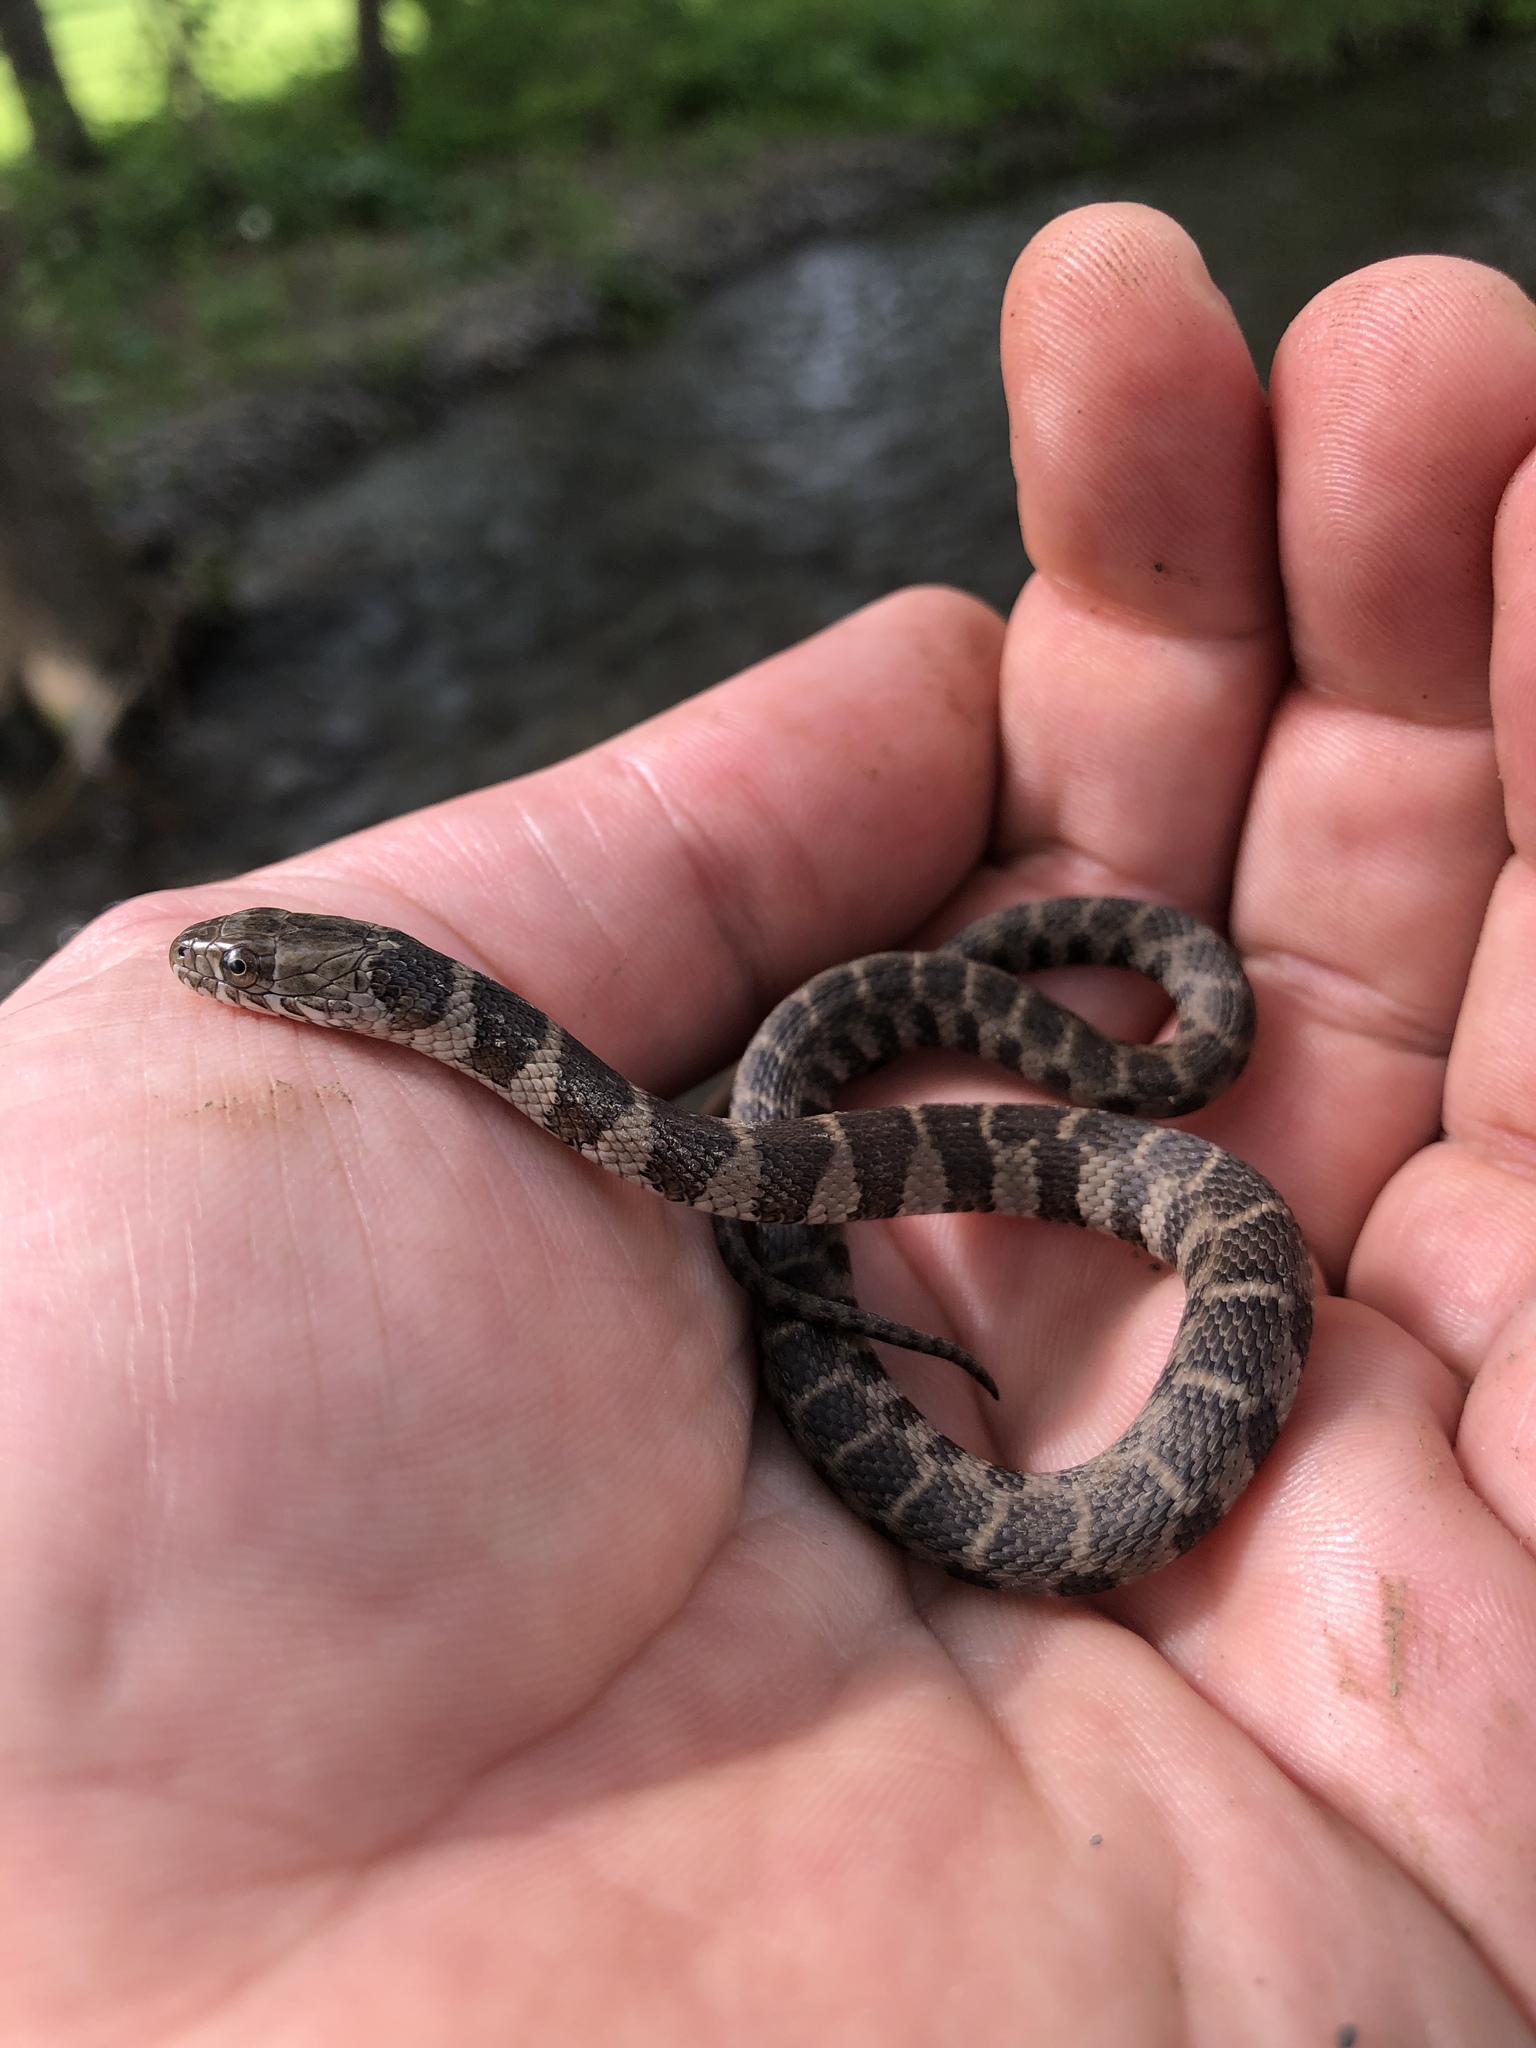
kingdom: Animalia
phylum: Chordata
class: Squamata
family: Colubridae
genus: Nerodia
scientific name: Nerodia sipedon
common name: Northern water snake
